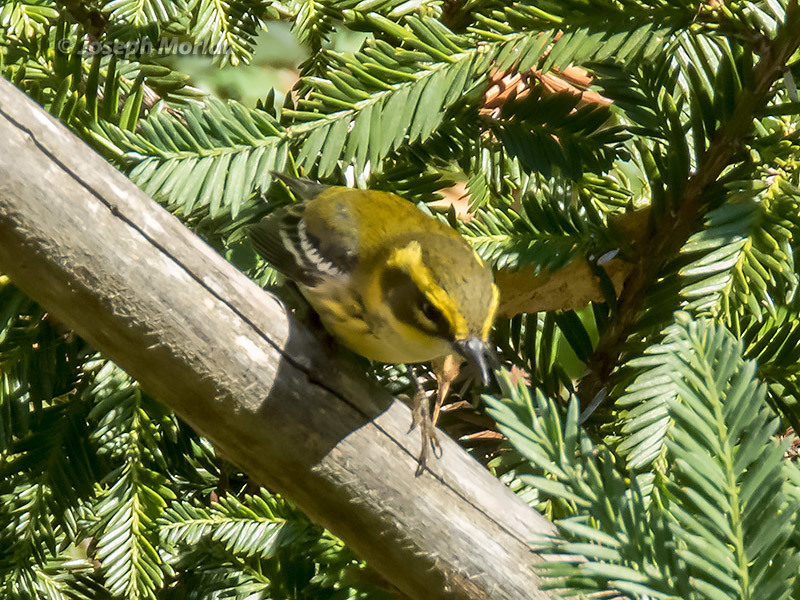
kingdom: Animalia
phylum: Chordata
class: Aves
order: Passeriformes
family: Parulidae
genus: Setophaga
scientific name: Setophaga townsendi
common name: Townsend's warbler
